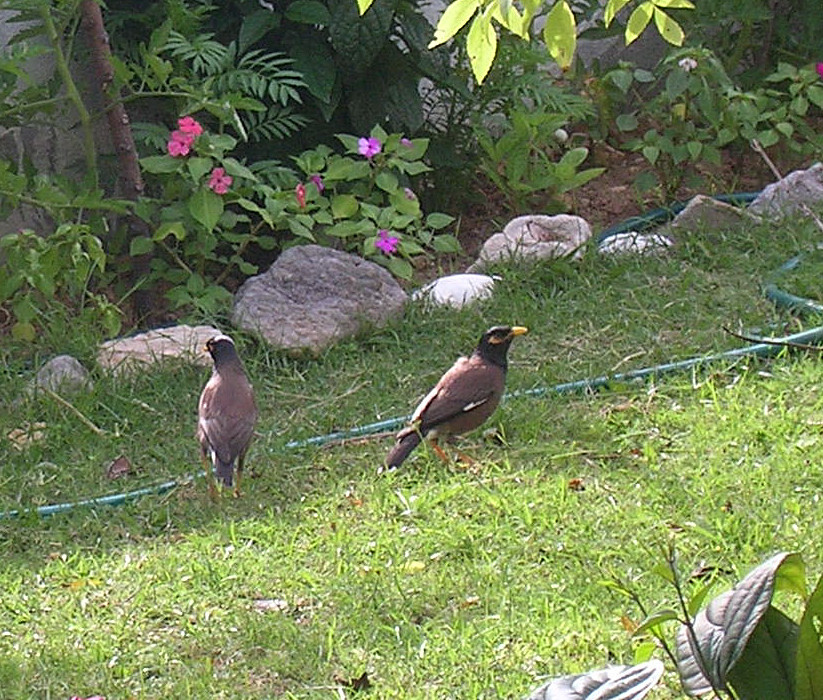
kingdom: Animalia
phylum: Chordata
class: Aves
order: Passeriformes
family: Sturnidae
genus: Acridotheres
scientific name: Acridotheres tristis
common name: Common myna
